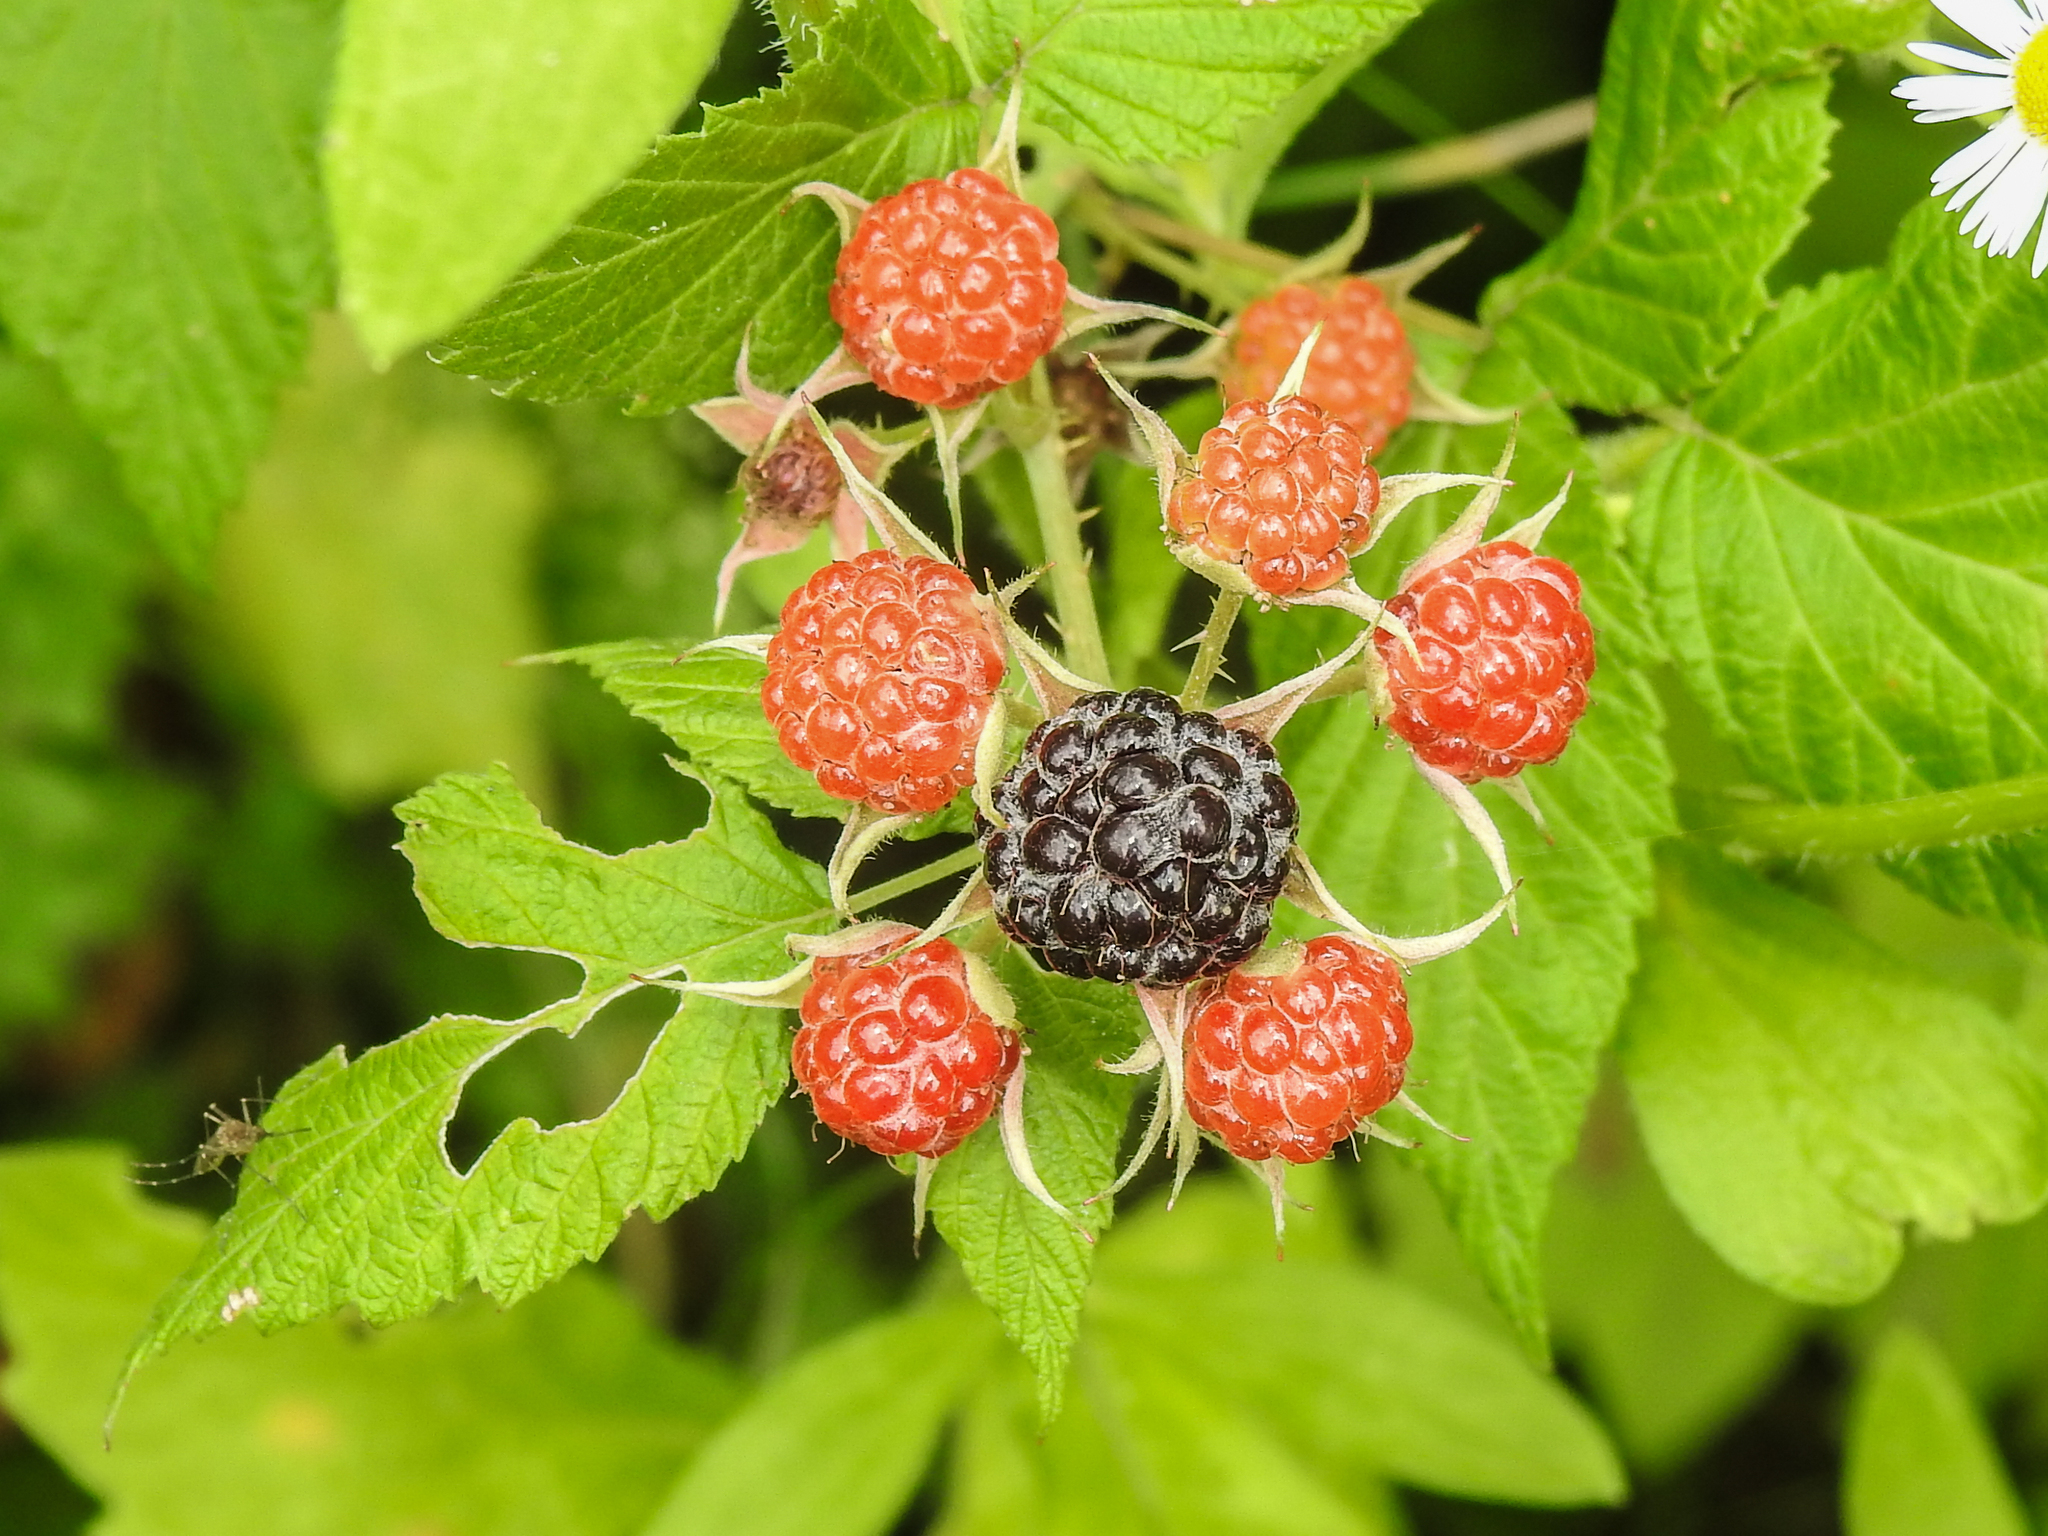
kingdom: Plantae
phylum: Tracheophyta
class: Magnoliopsida
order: Rosales
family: Rosaceae
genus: Rubus
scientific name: Rubus occidentalis
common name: Black raspberry
